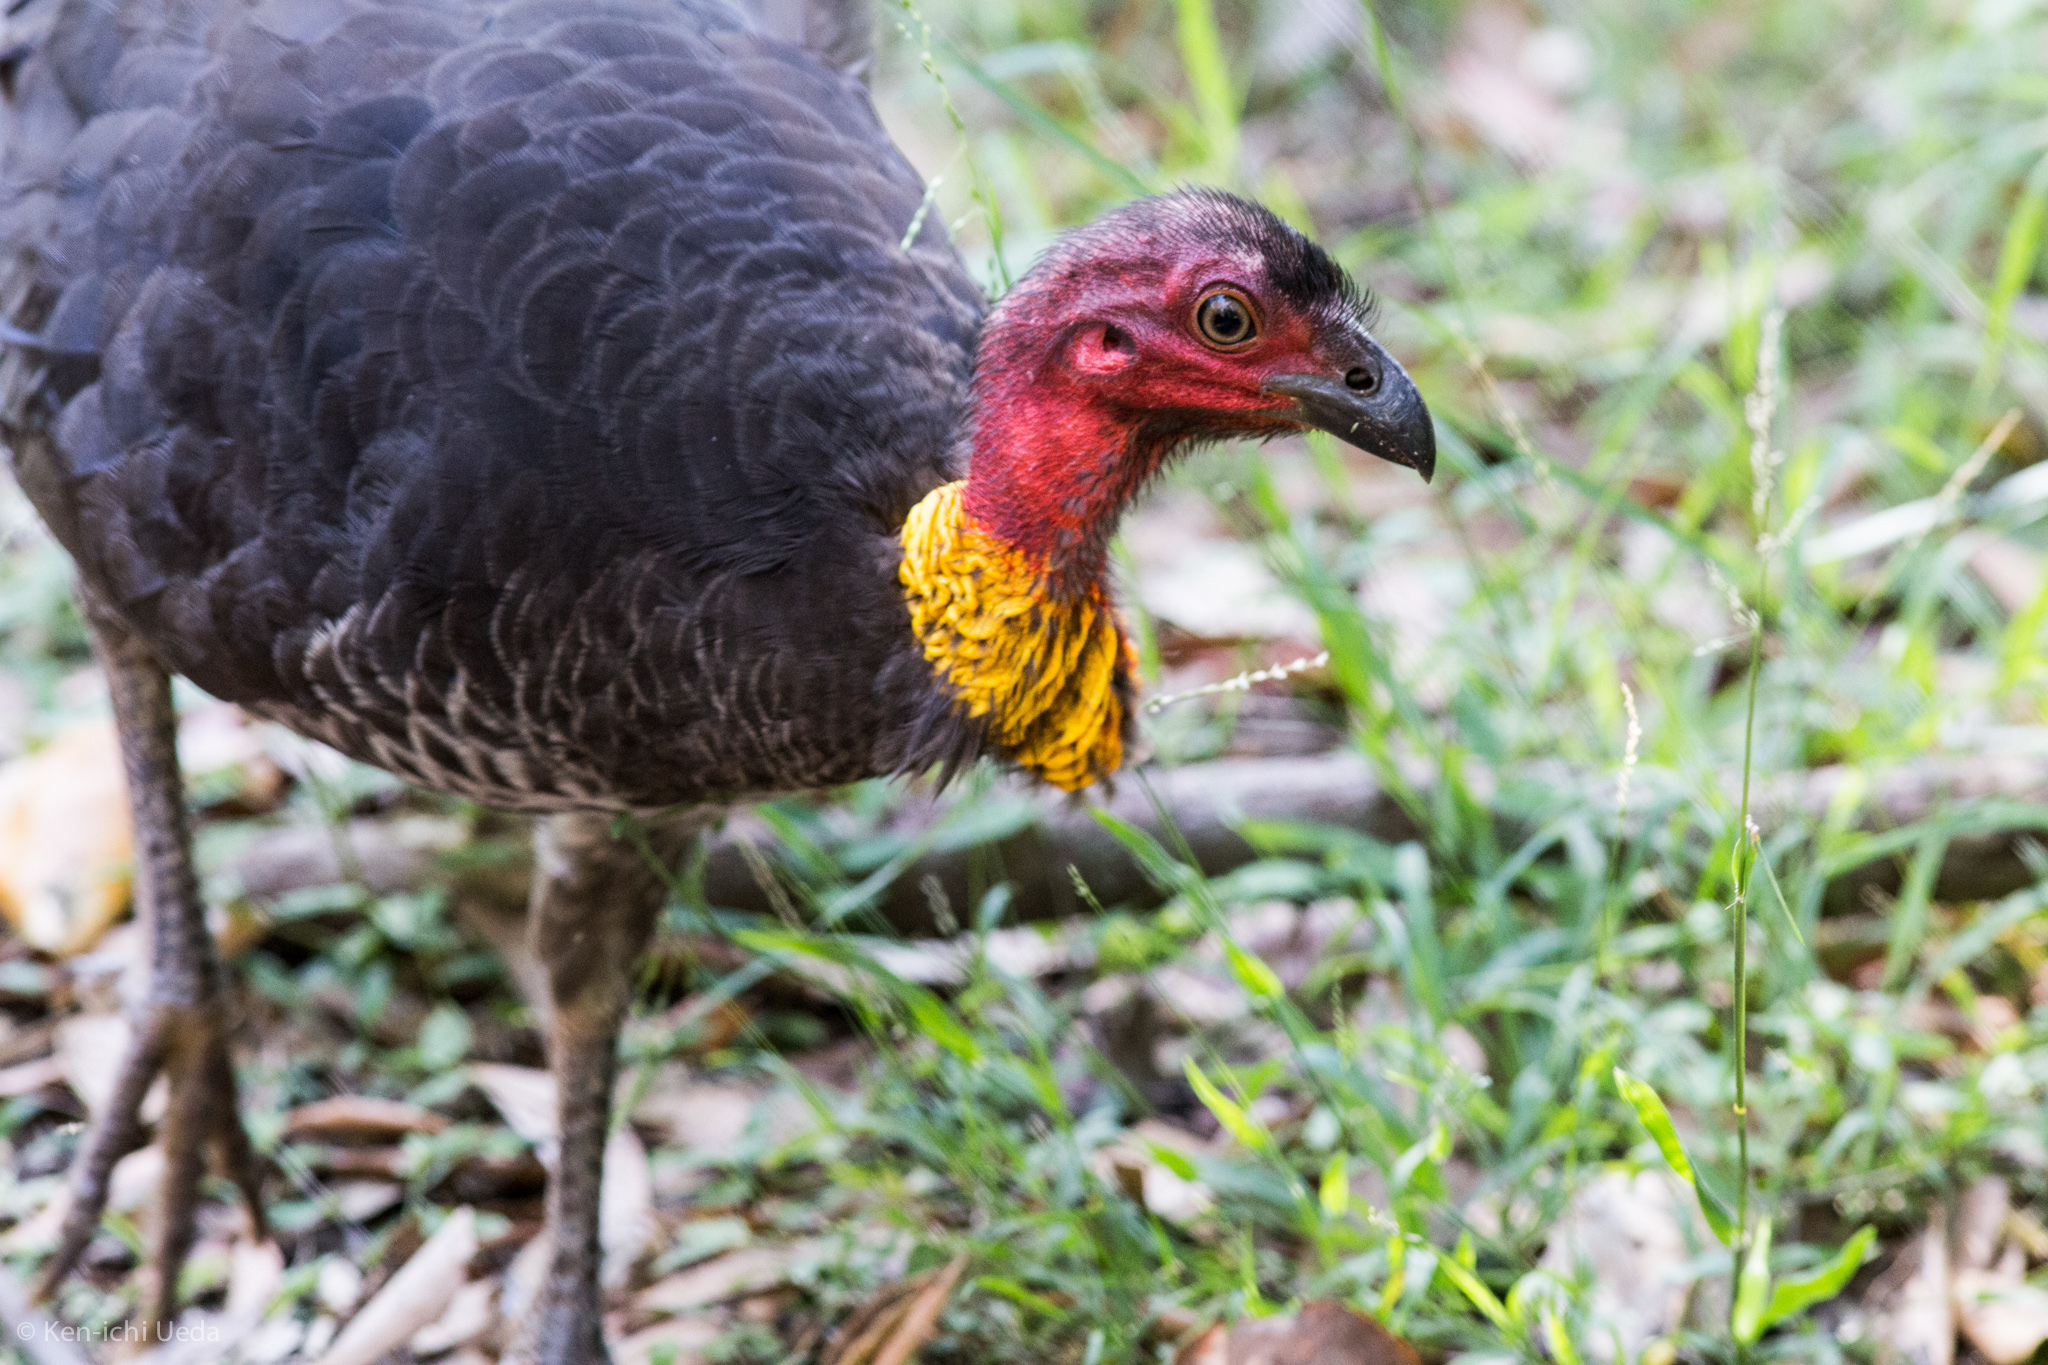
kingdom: Animalia
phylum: Chordata
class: Aves
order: Galliformes
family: Megapodiidae
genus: Alectura
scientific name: Alectura lathami
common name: Australian brushturkey
